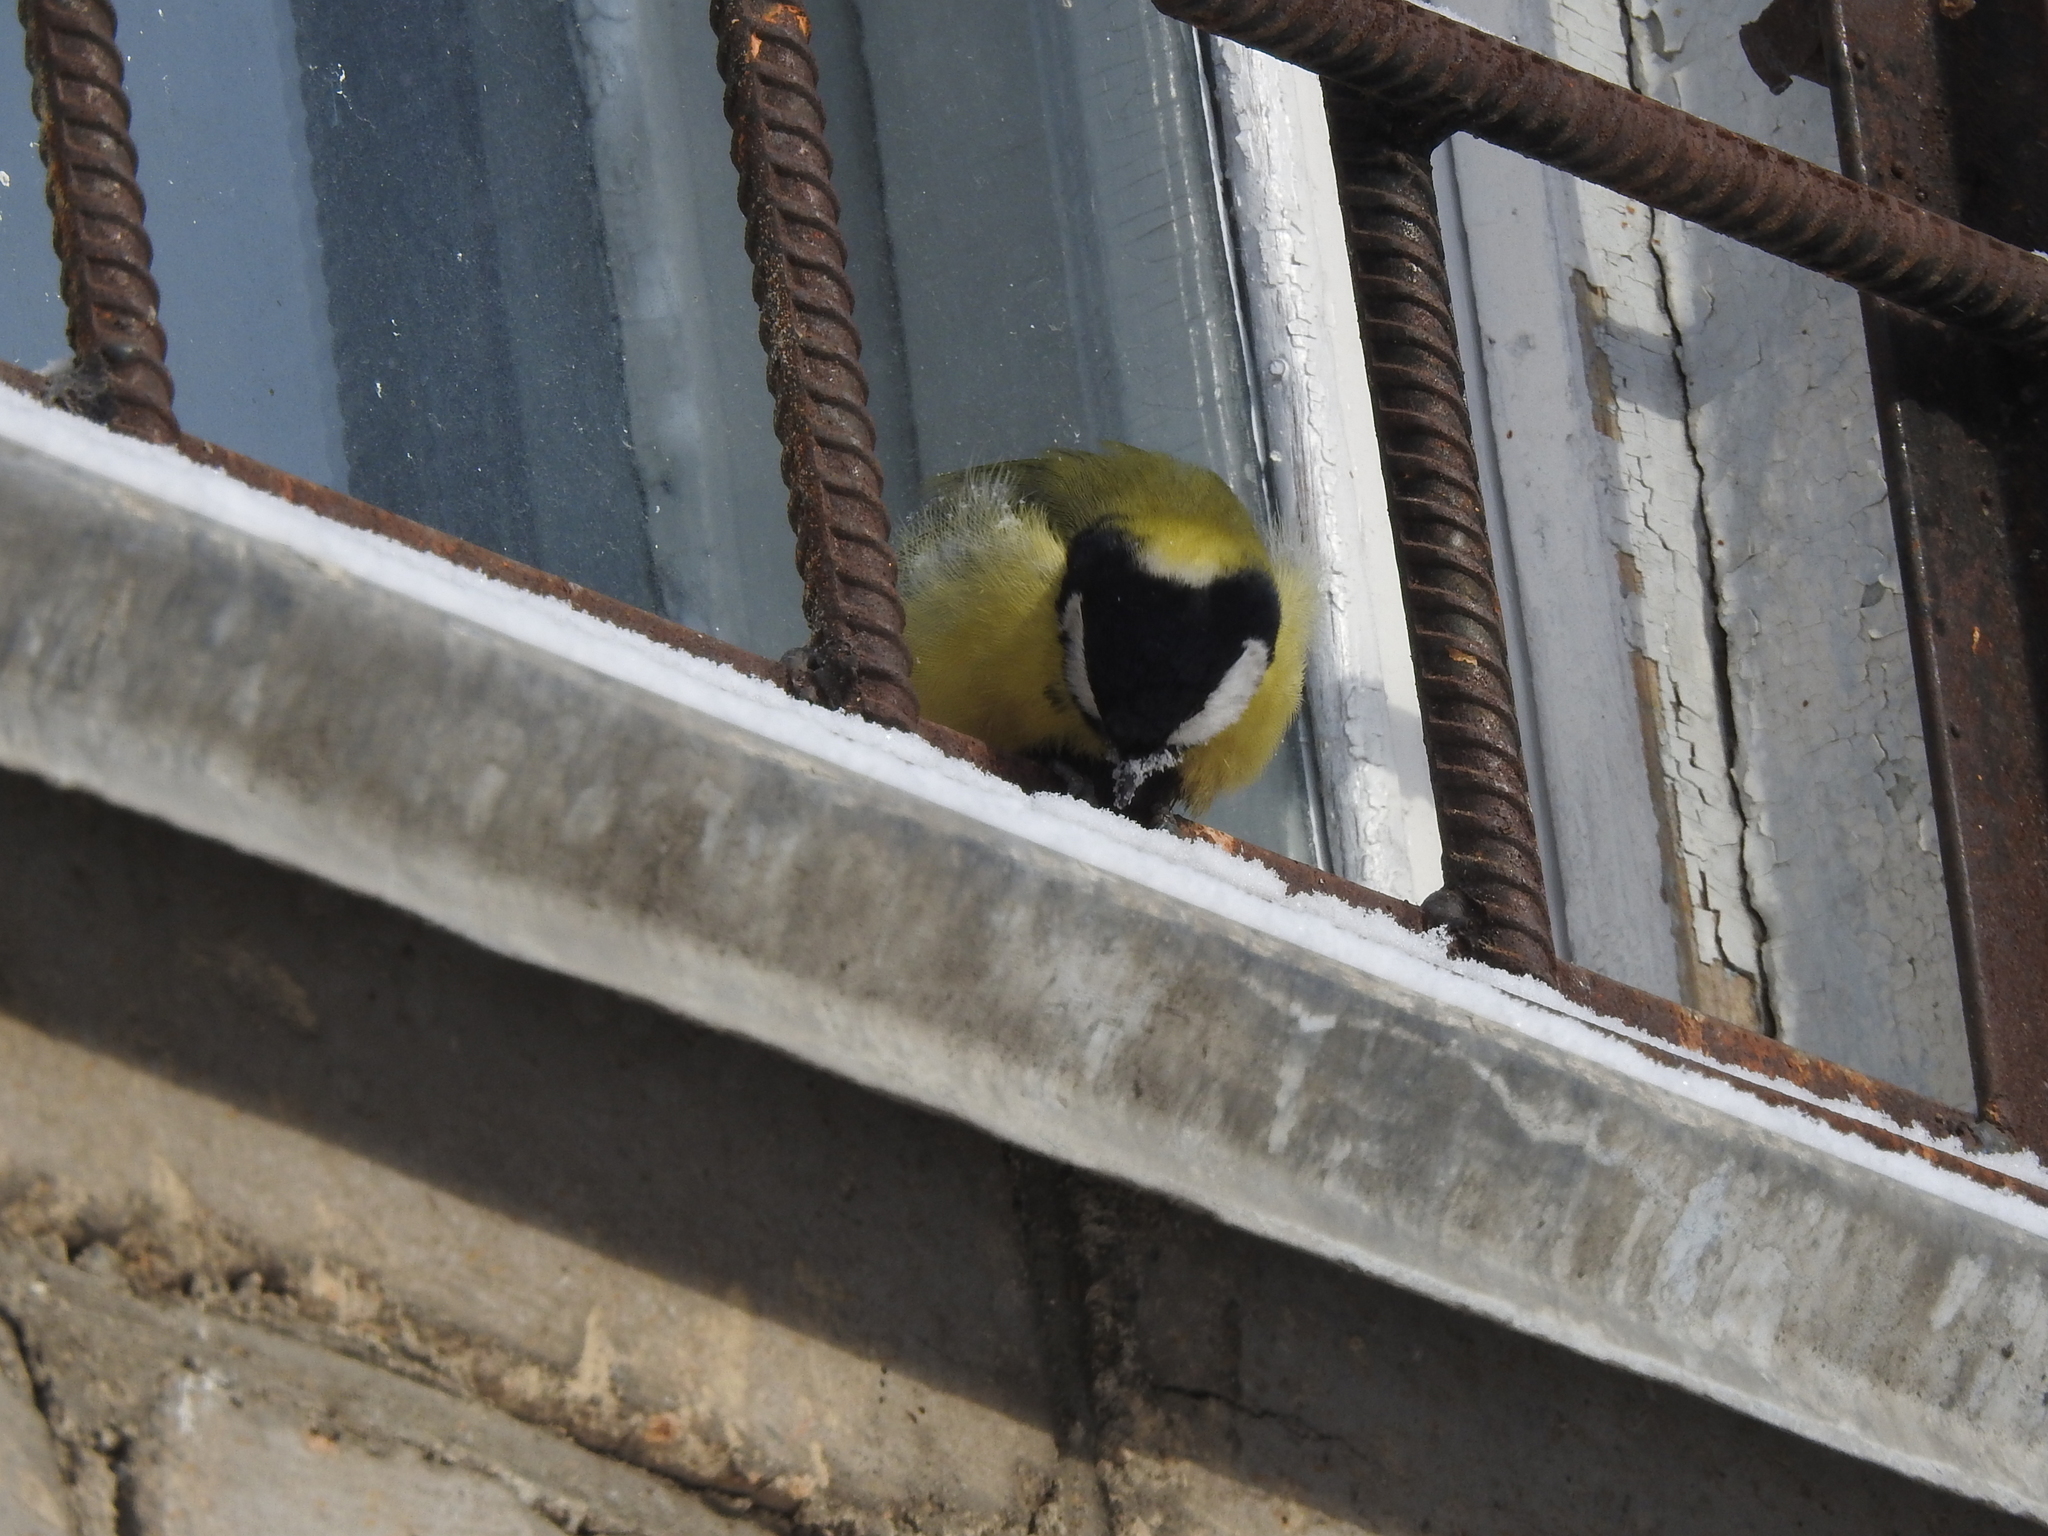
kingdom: Animalia
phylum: Chordata
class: Aves
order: Passeriformes
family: Paridae
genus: Parus
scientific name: Parus major
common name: Great tit
